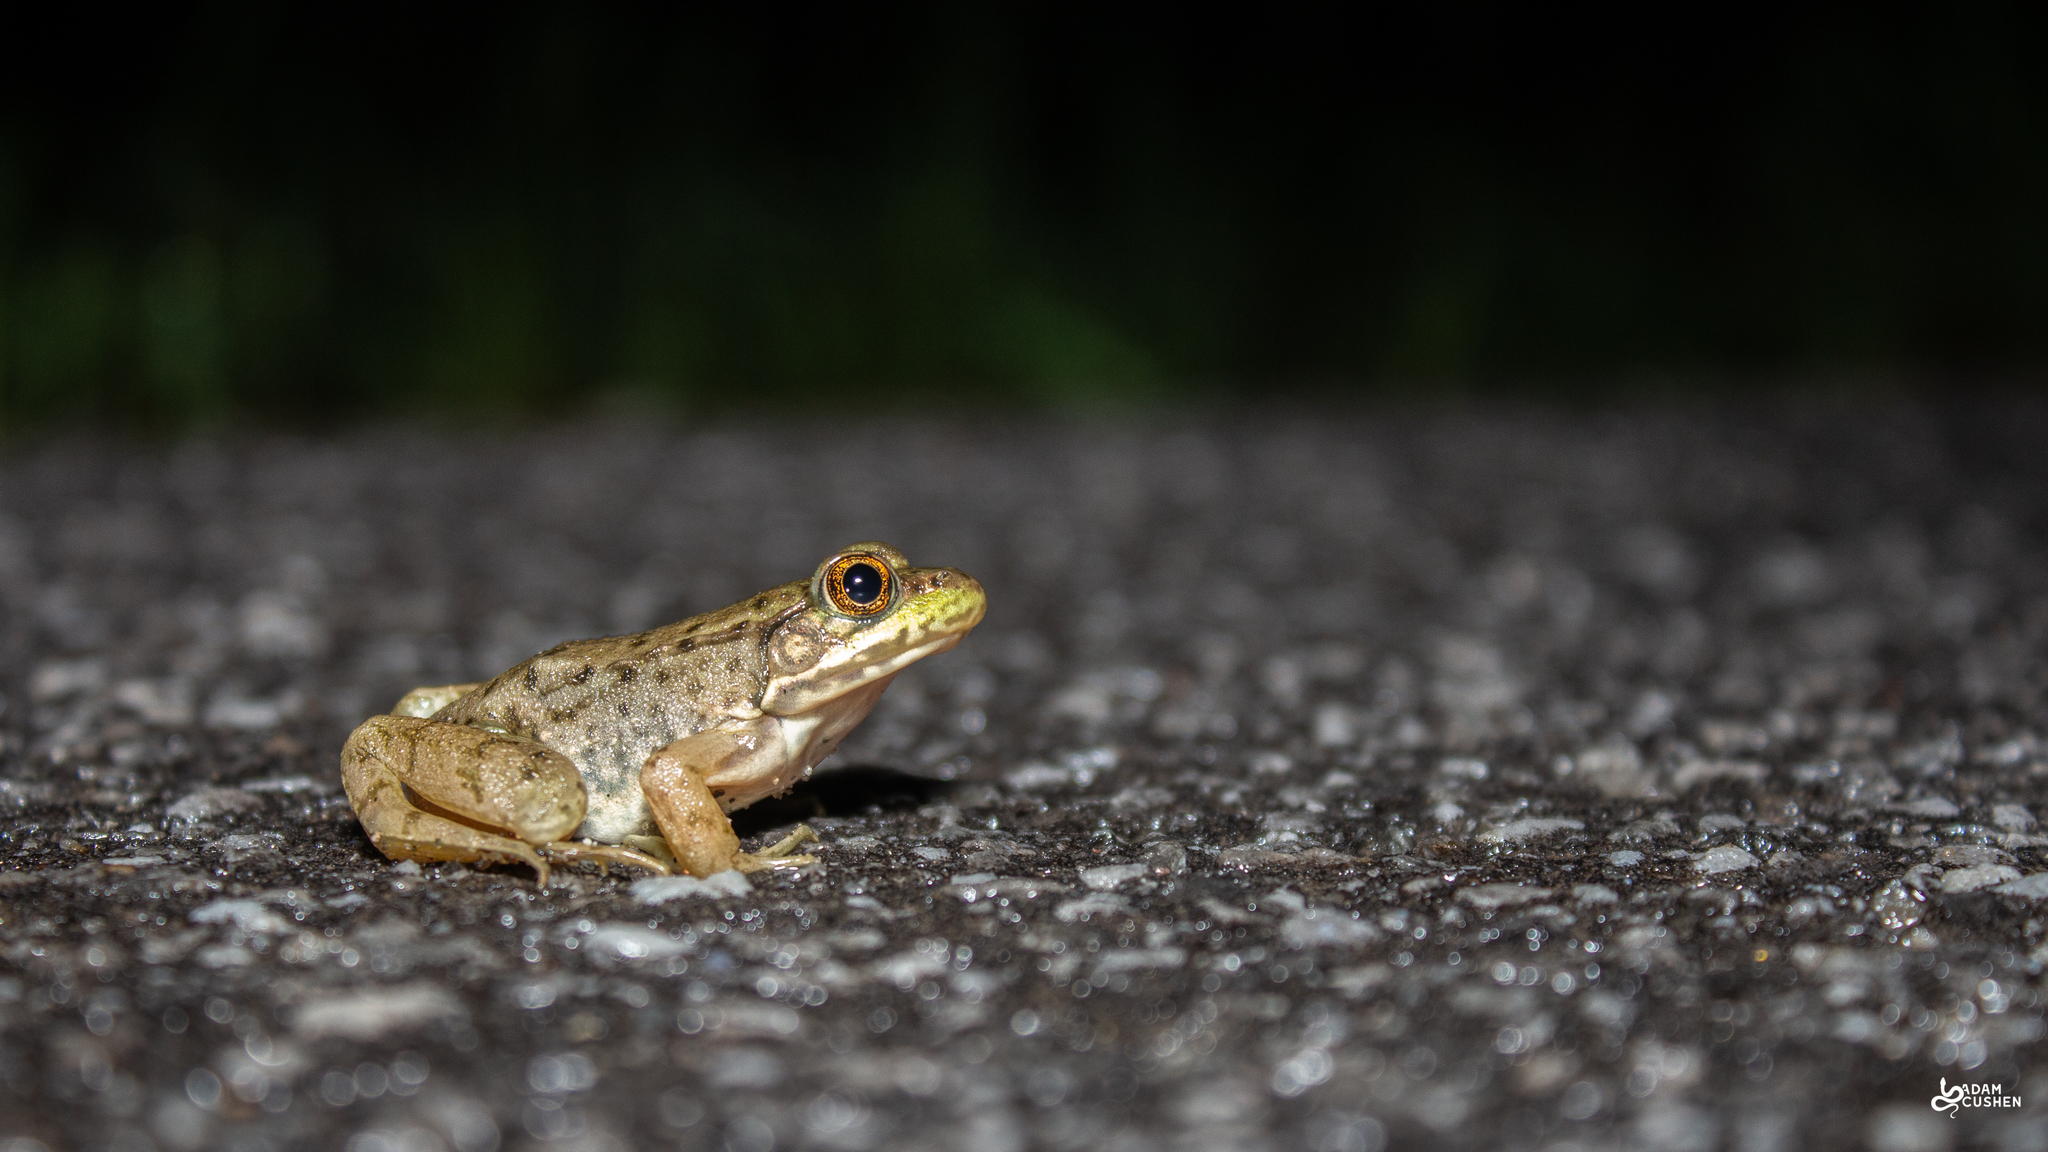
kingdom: Animalia
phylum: Chordata
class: Amphibia
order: Anura
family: Ranidae
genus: Lithobates
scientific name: Lithobates clamitans
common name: Green frog
